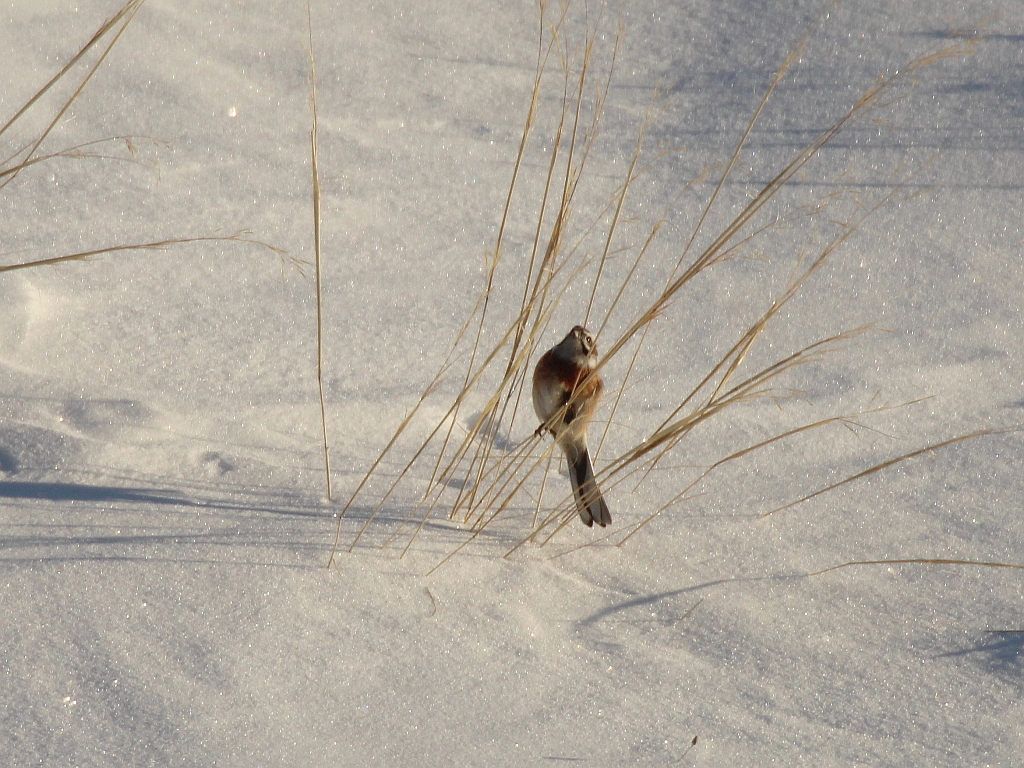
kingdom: Animalia
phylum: Chordata
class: Aves
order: Passeriformes
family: Emberizidae
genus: Emberiza
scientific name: Emberiza cioides
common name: Meadow bunting
